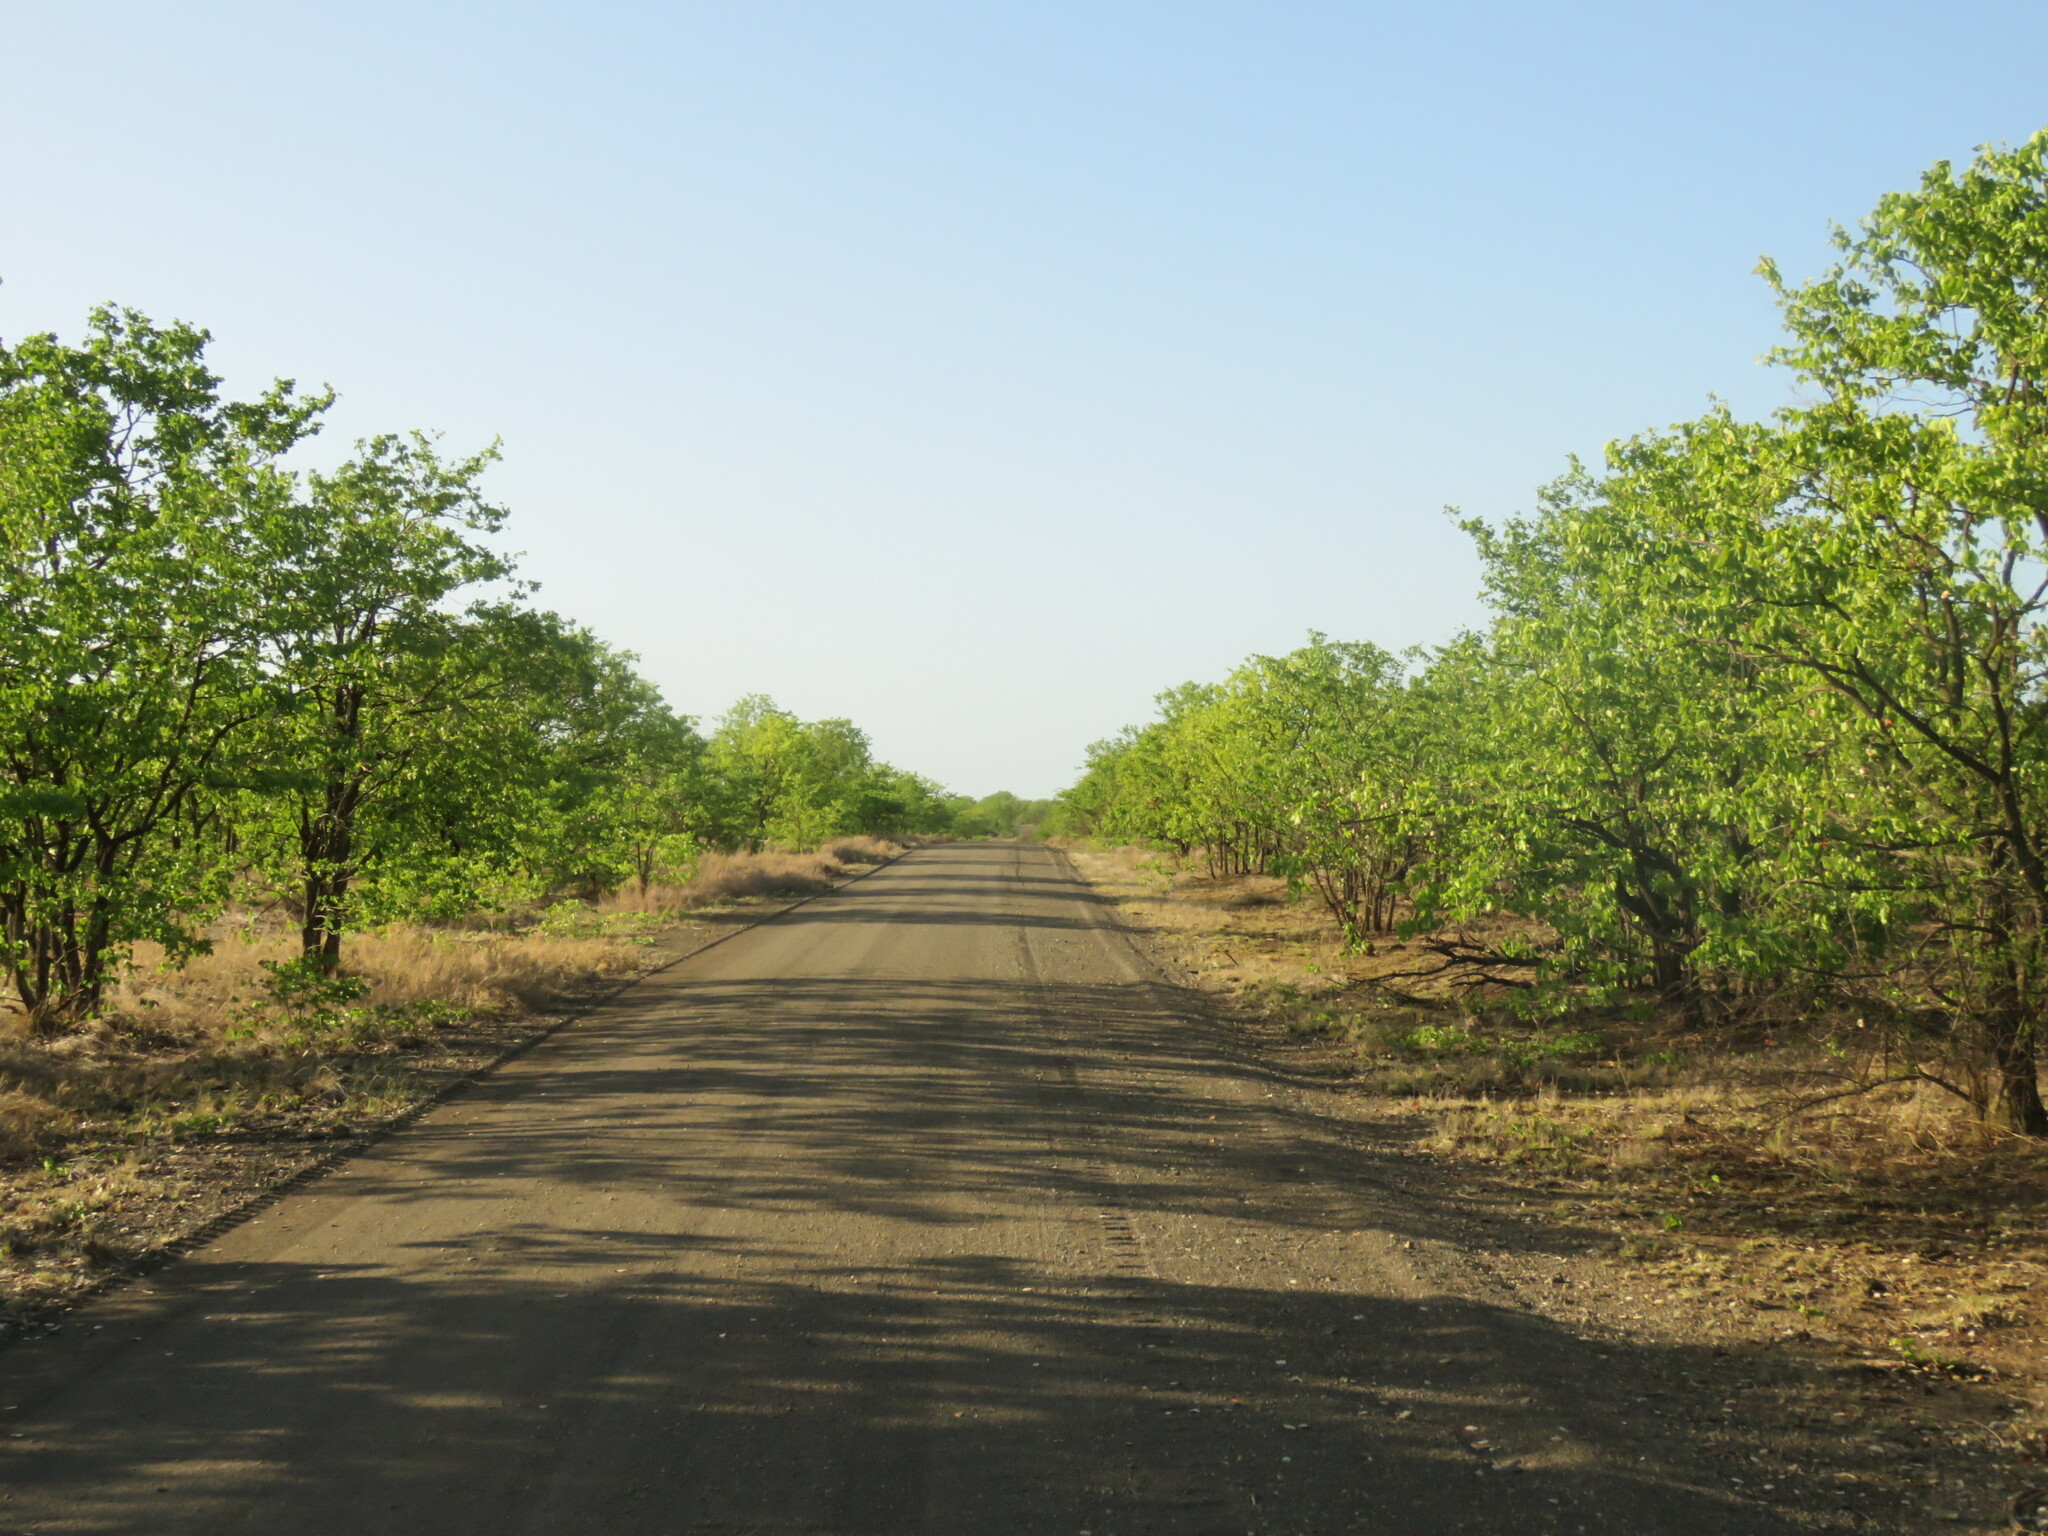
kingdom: Plantae
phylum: Tracheophyta
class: Magnoliopsida
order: Fabales
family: Fabaceae
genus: Colophospermum
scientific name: Colophospermum mopane
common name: Mopane
